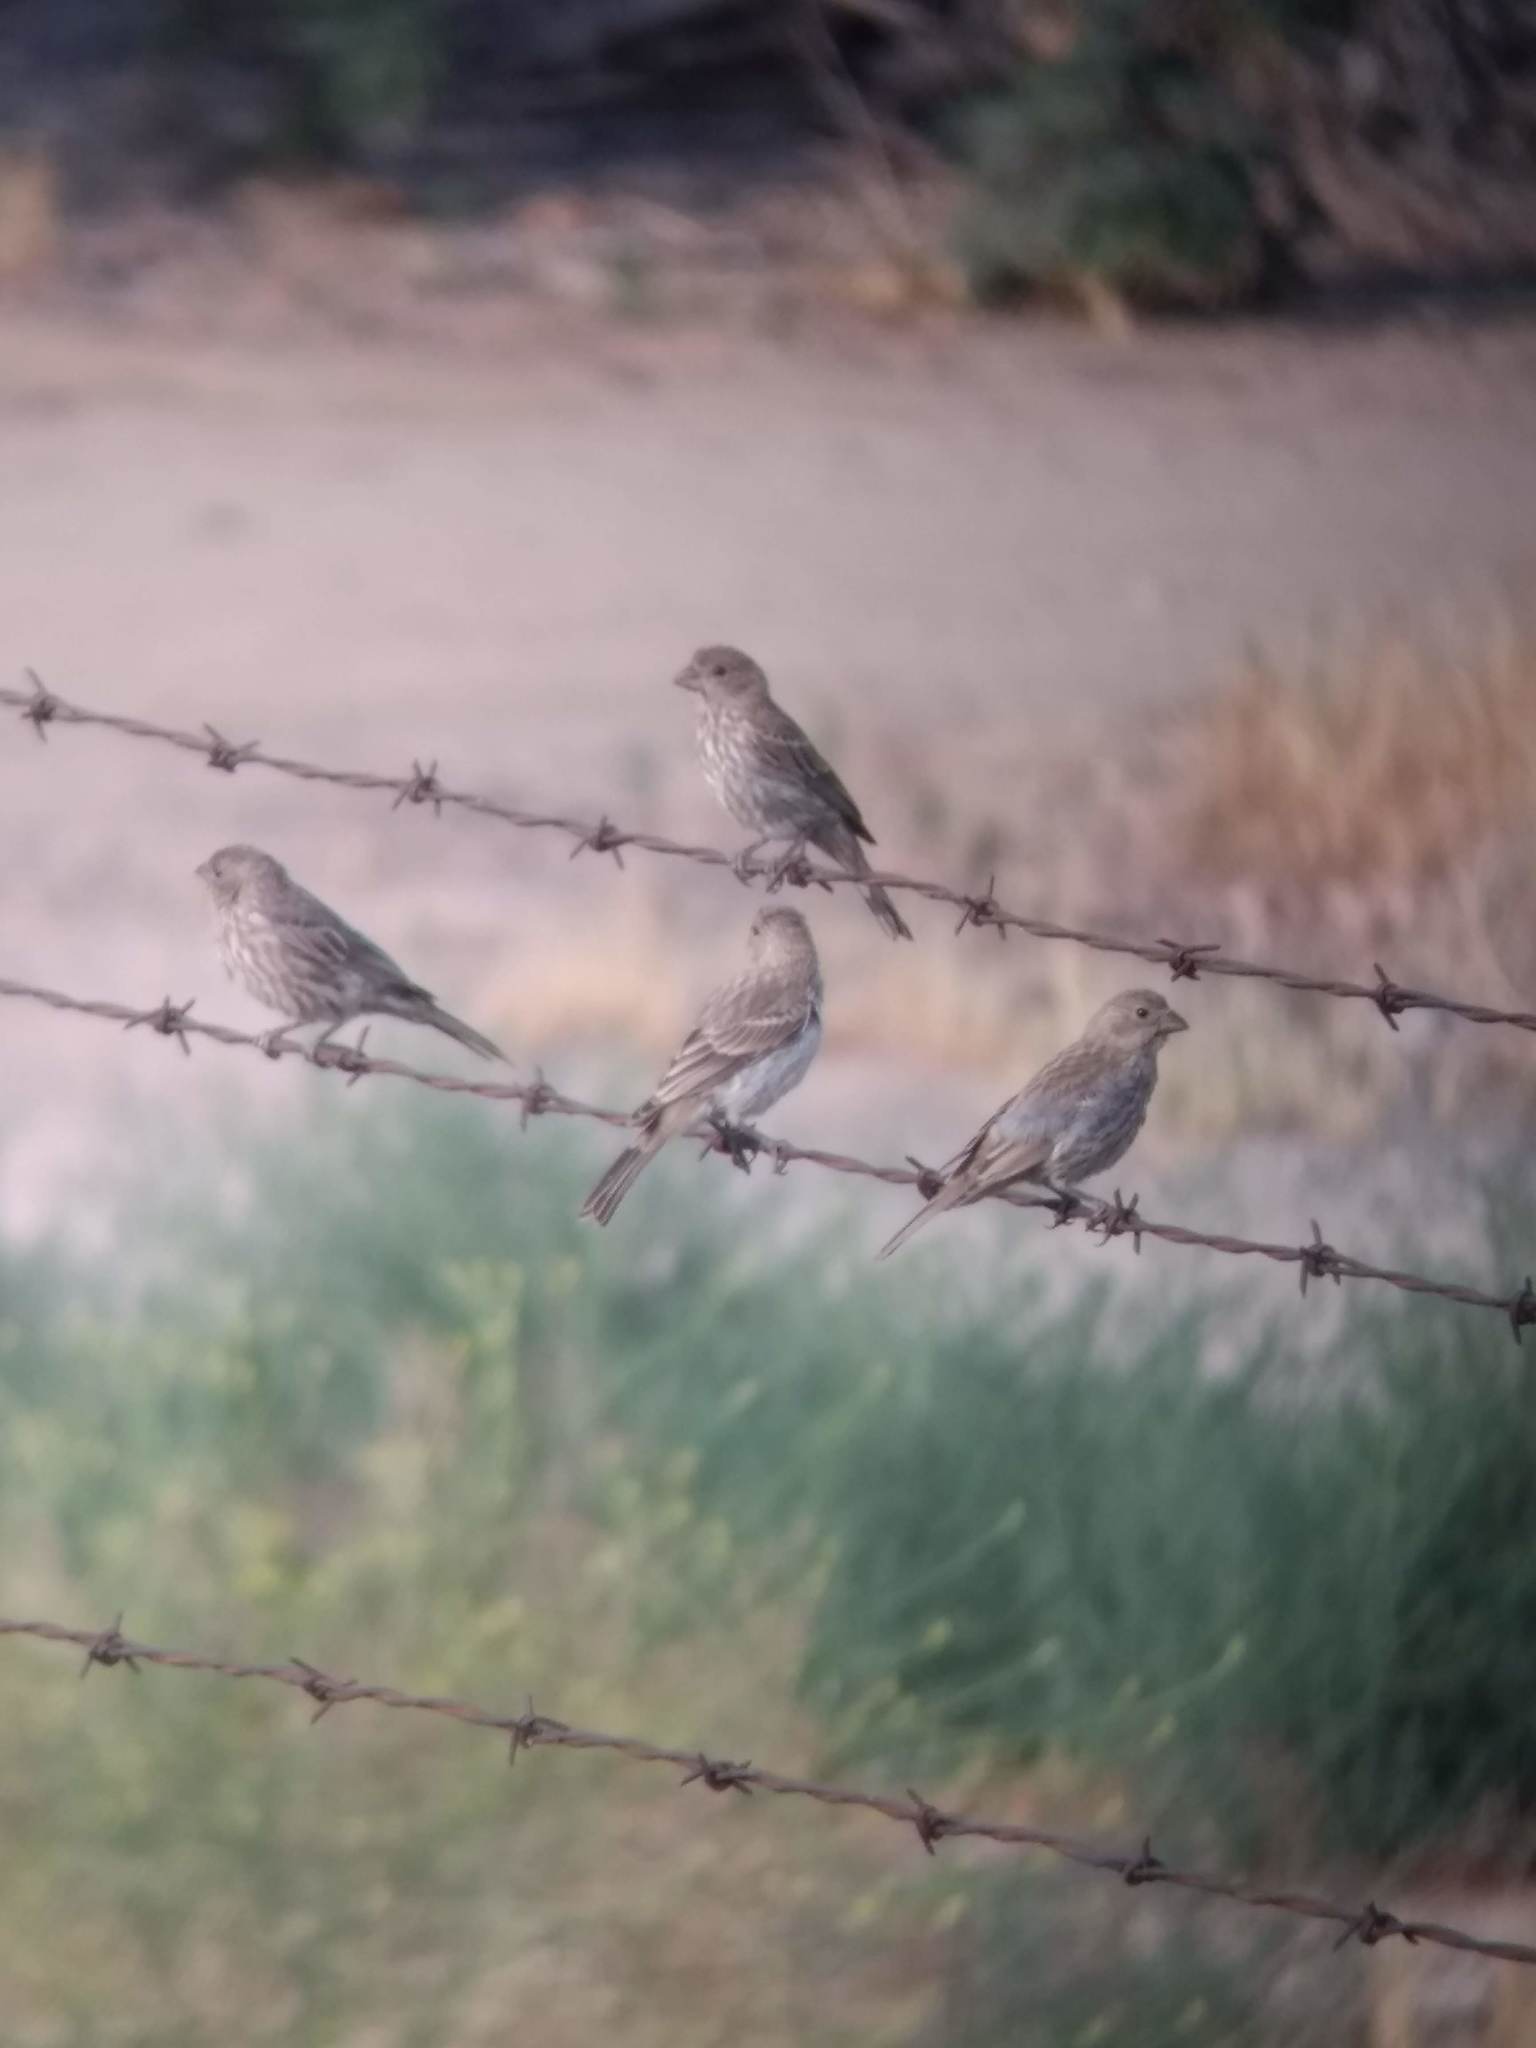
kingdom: Animalia
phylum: Chordata
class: Aves
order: Passeriformes
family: Fringillidae
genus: Haemorhous
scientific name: Haemorhous mexicanus
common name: House finch
